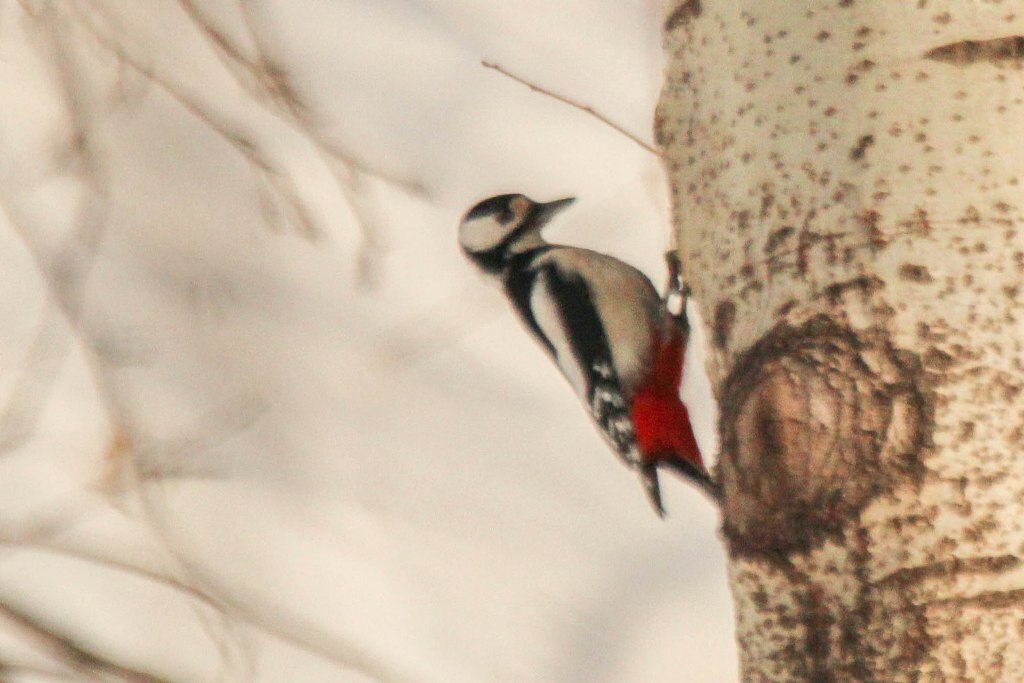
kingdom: Animalia
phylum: Chordata
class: Aves
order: Piciformes
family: Picidae
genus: Dendrocopos
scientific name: Dendrocopos major
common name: Great spotted woodpecker
